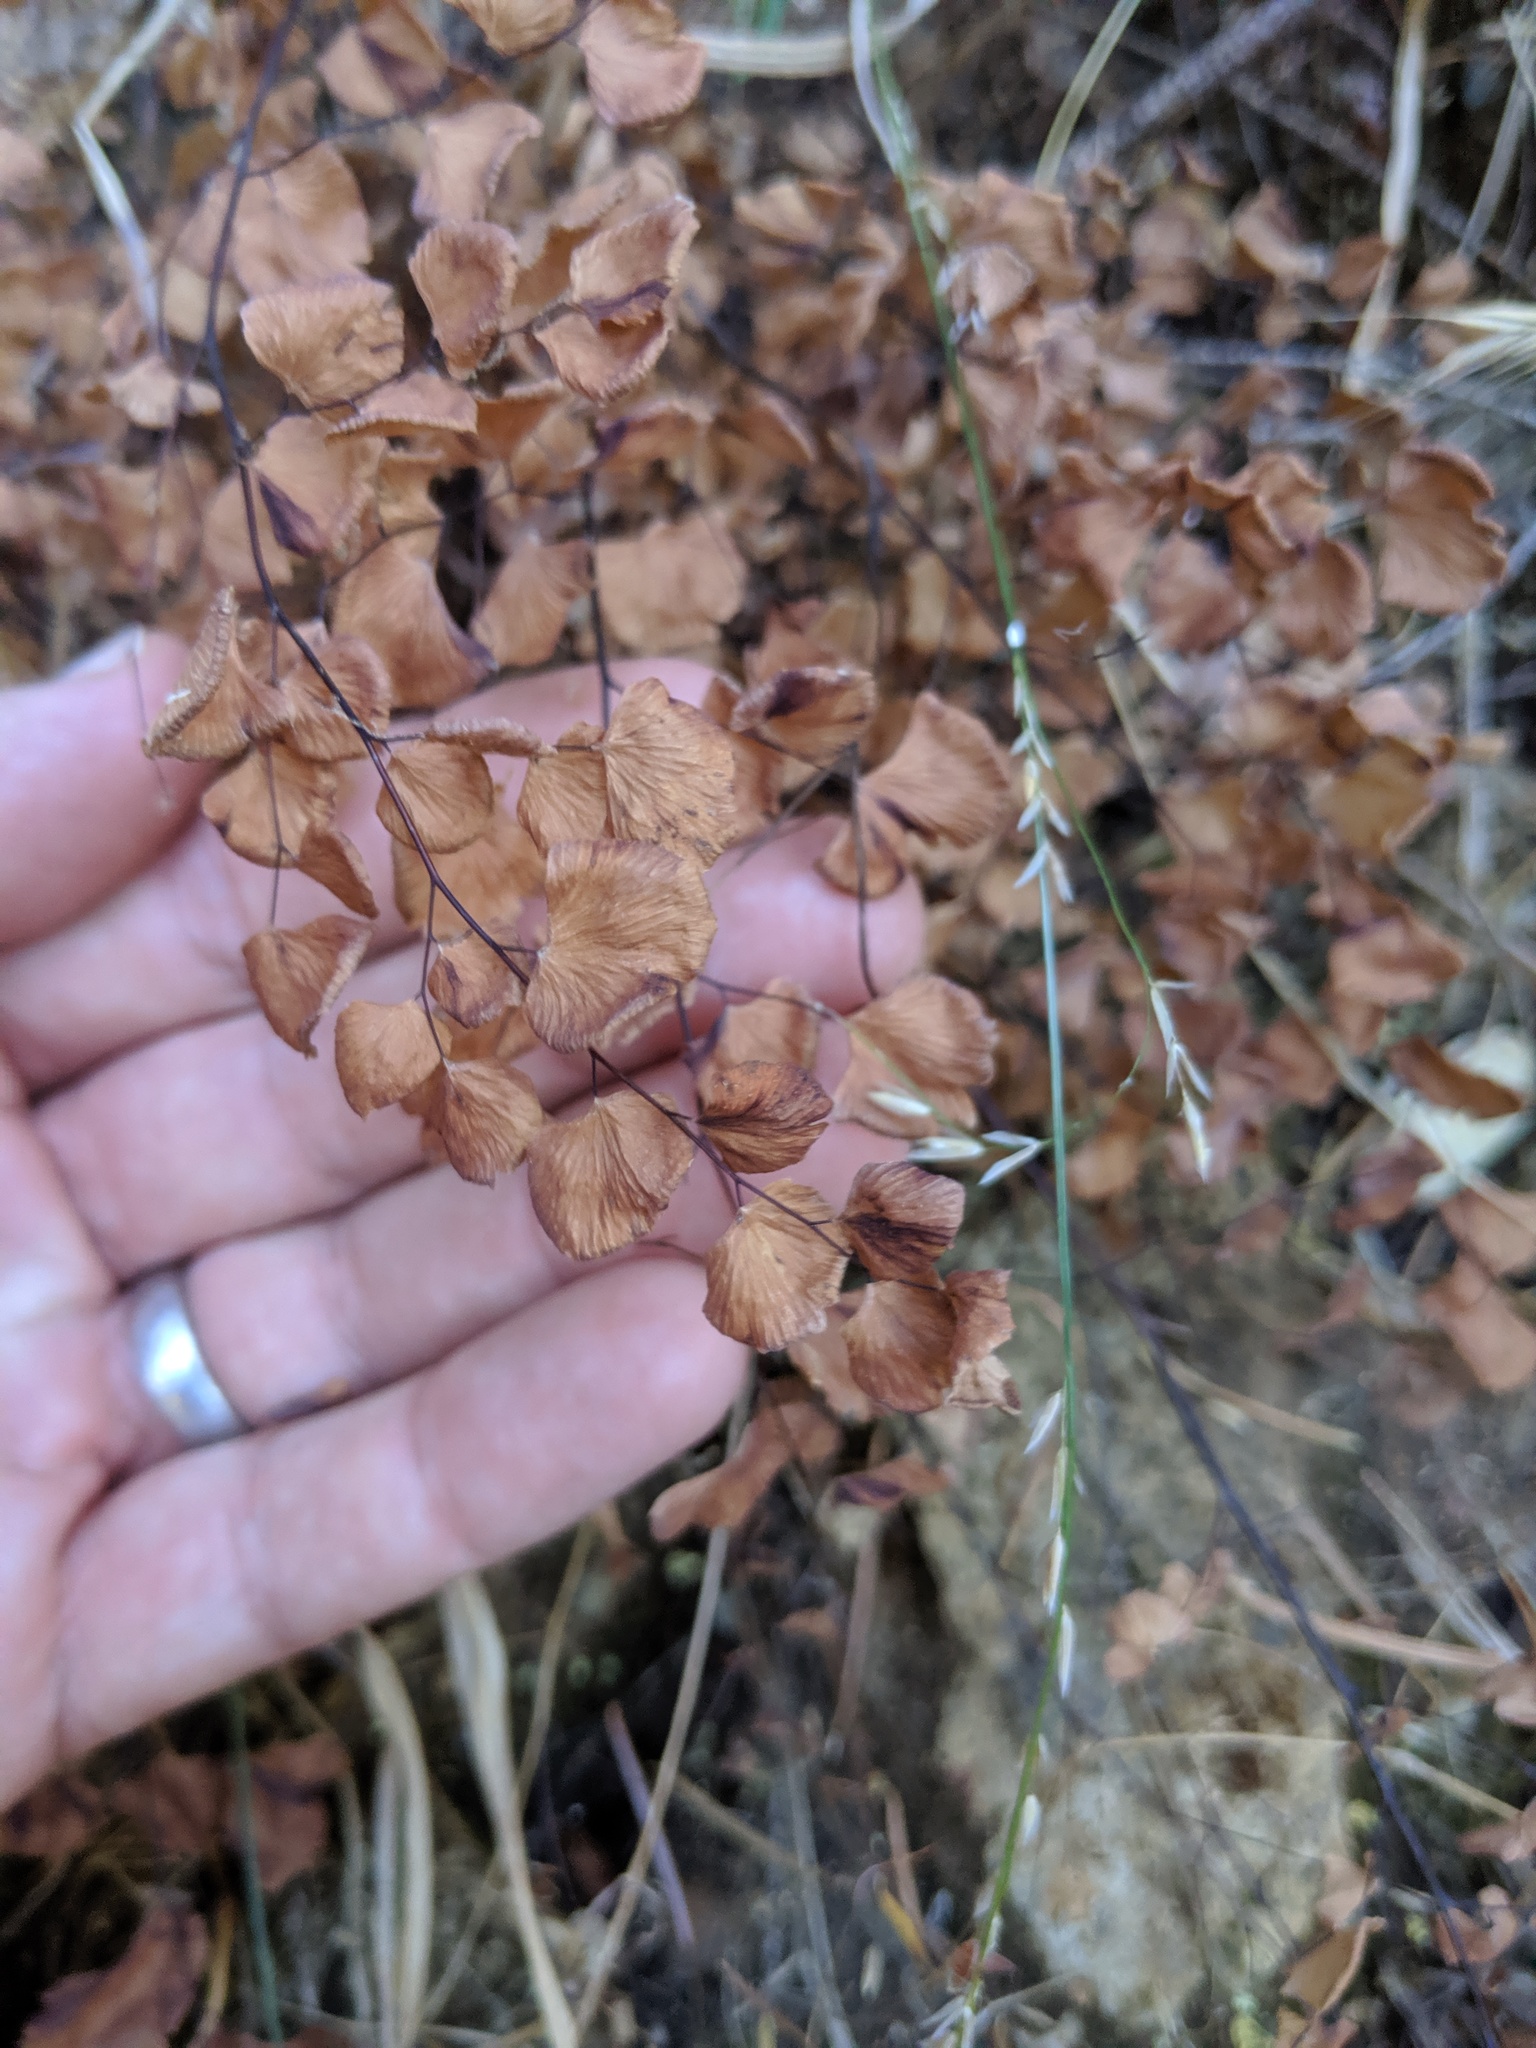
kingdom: Plantae
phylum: Tracheophyta
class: Polypodiopsida
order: Polypodiales
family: Pteridaceae
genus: Adiantum
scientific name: Adiantum jordanii
